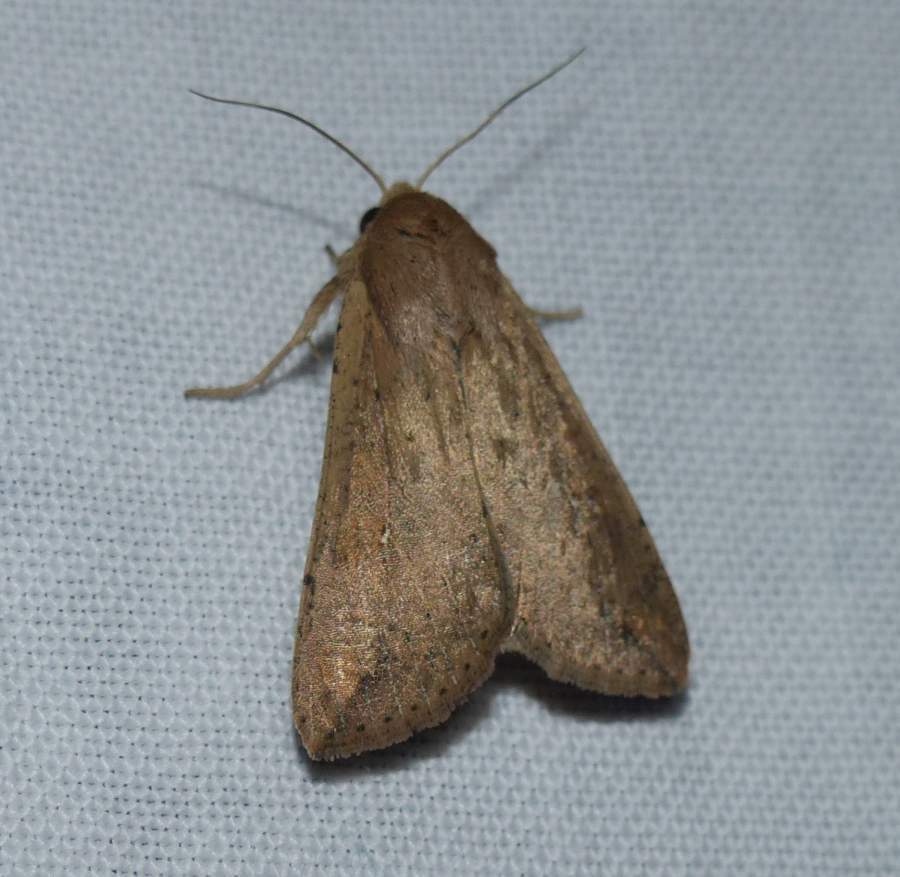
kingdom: Animalia
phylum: Arthropoda
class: Insecta
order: Lepidoptera
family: Noctuidae
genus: Mythimna
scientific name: Mythimna unipuncta
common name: White-speck
